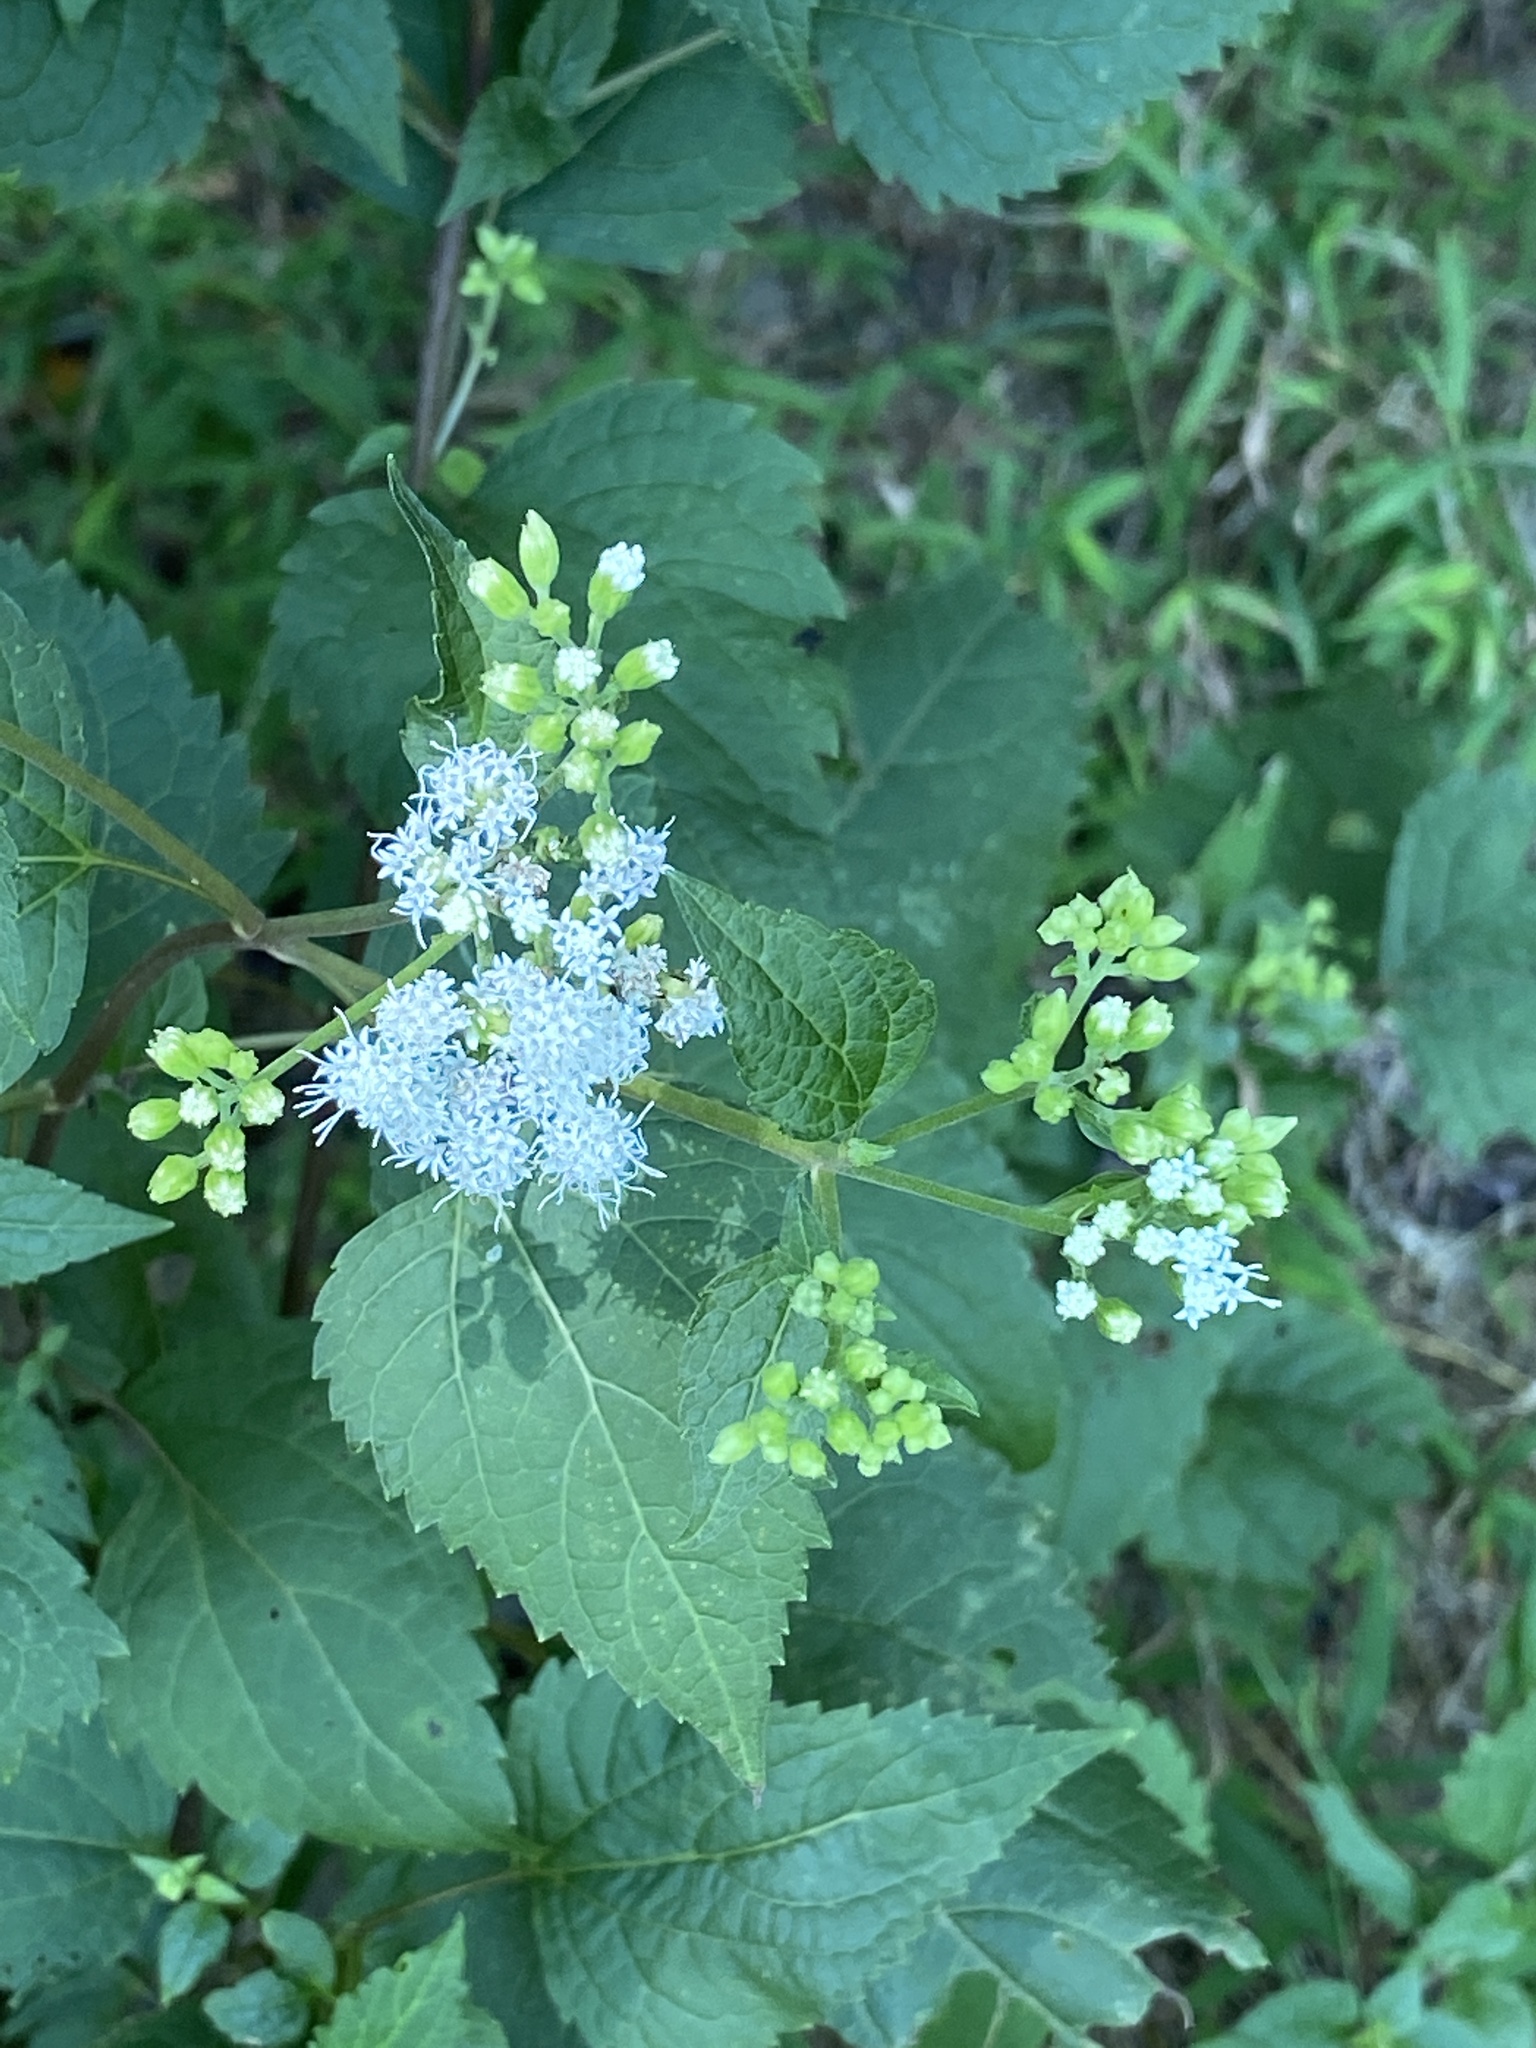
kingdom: Plantae
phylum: Tracheophyta
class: Magnoliopsida
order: Asterales
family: Asteraceae
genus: Ageratina
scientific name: Ageratina altissima
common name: White snakeroot
